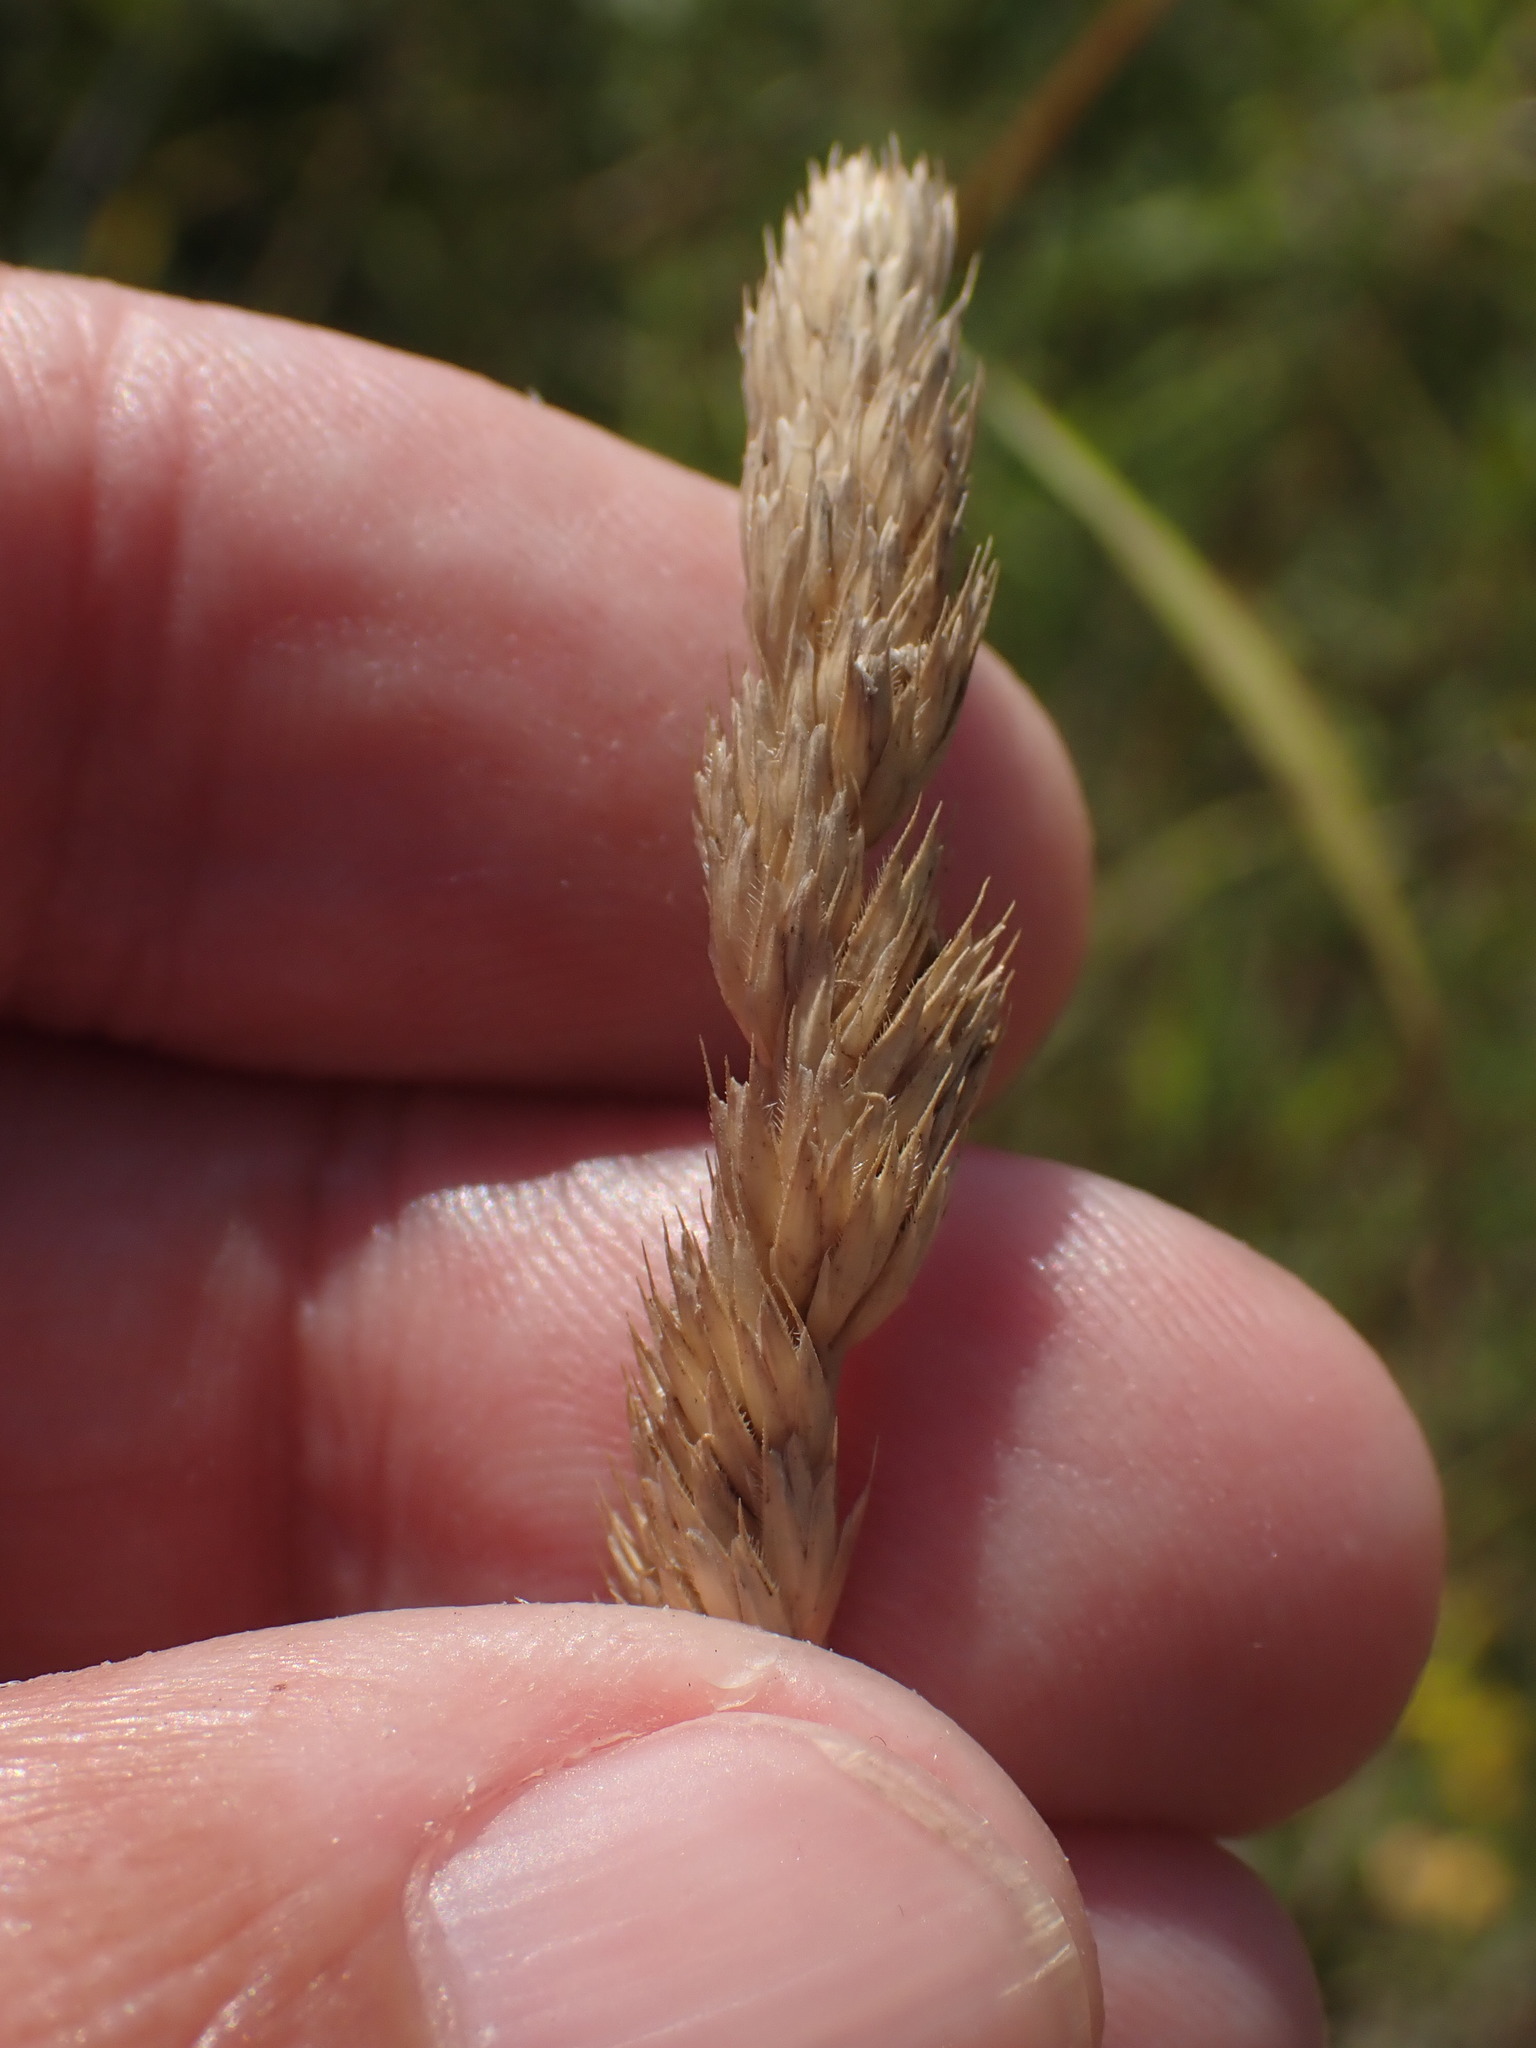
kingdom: Plantae
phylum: Tracheophyta
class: Liliopsida
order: Poales
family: Poaceae
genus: Dactylis
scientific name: Dactylis glomerata
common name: Orchardgrass
